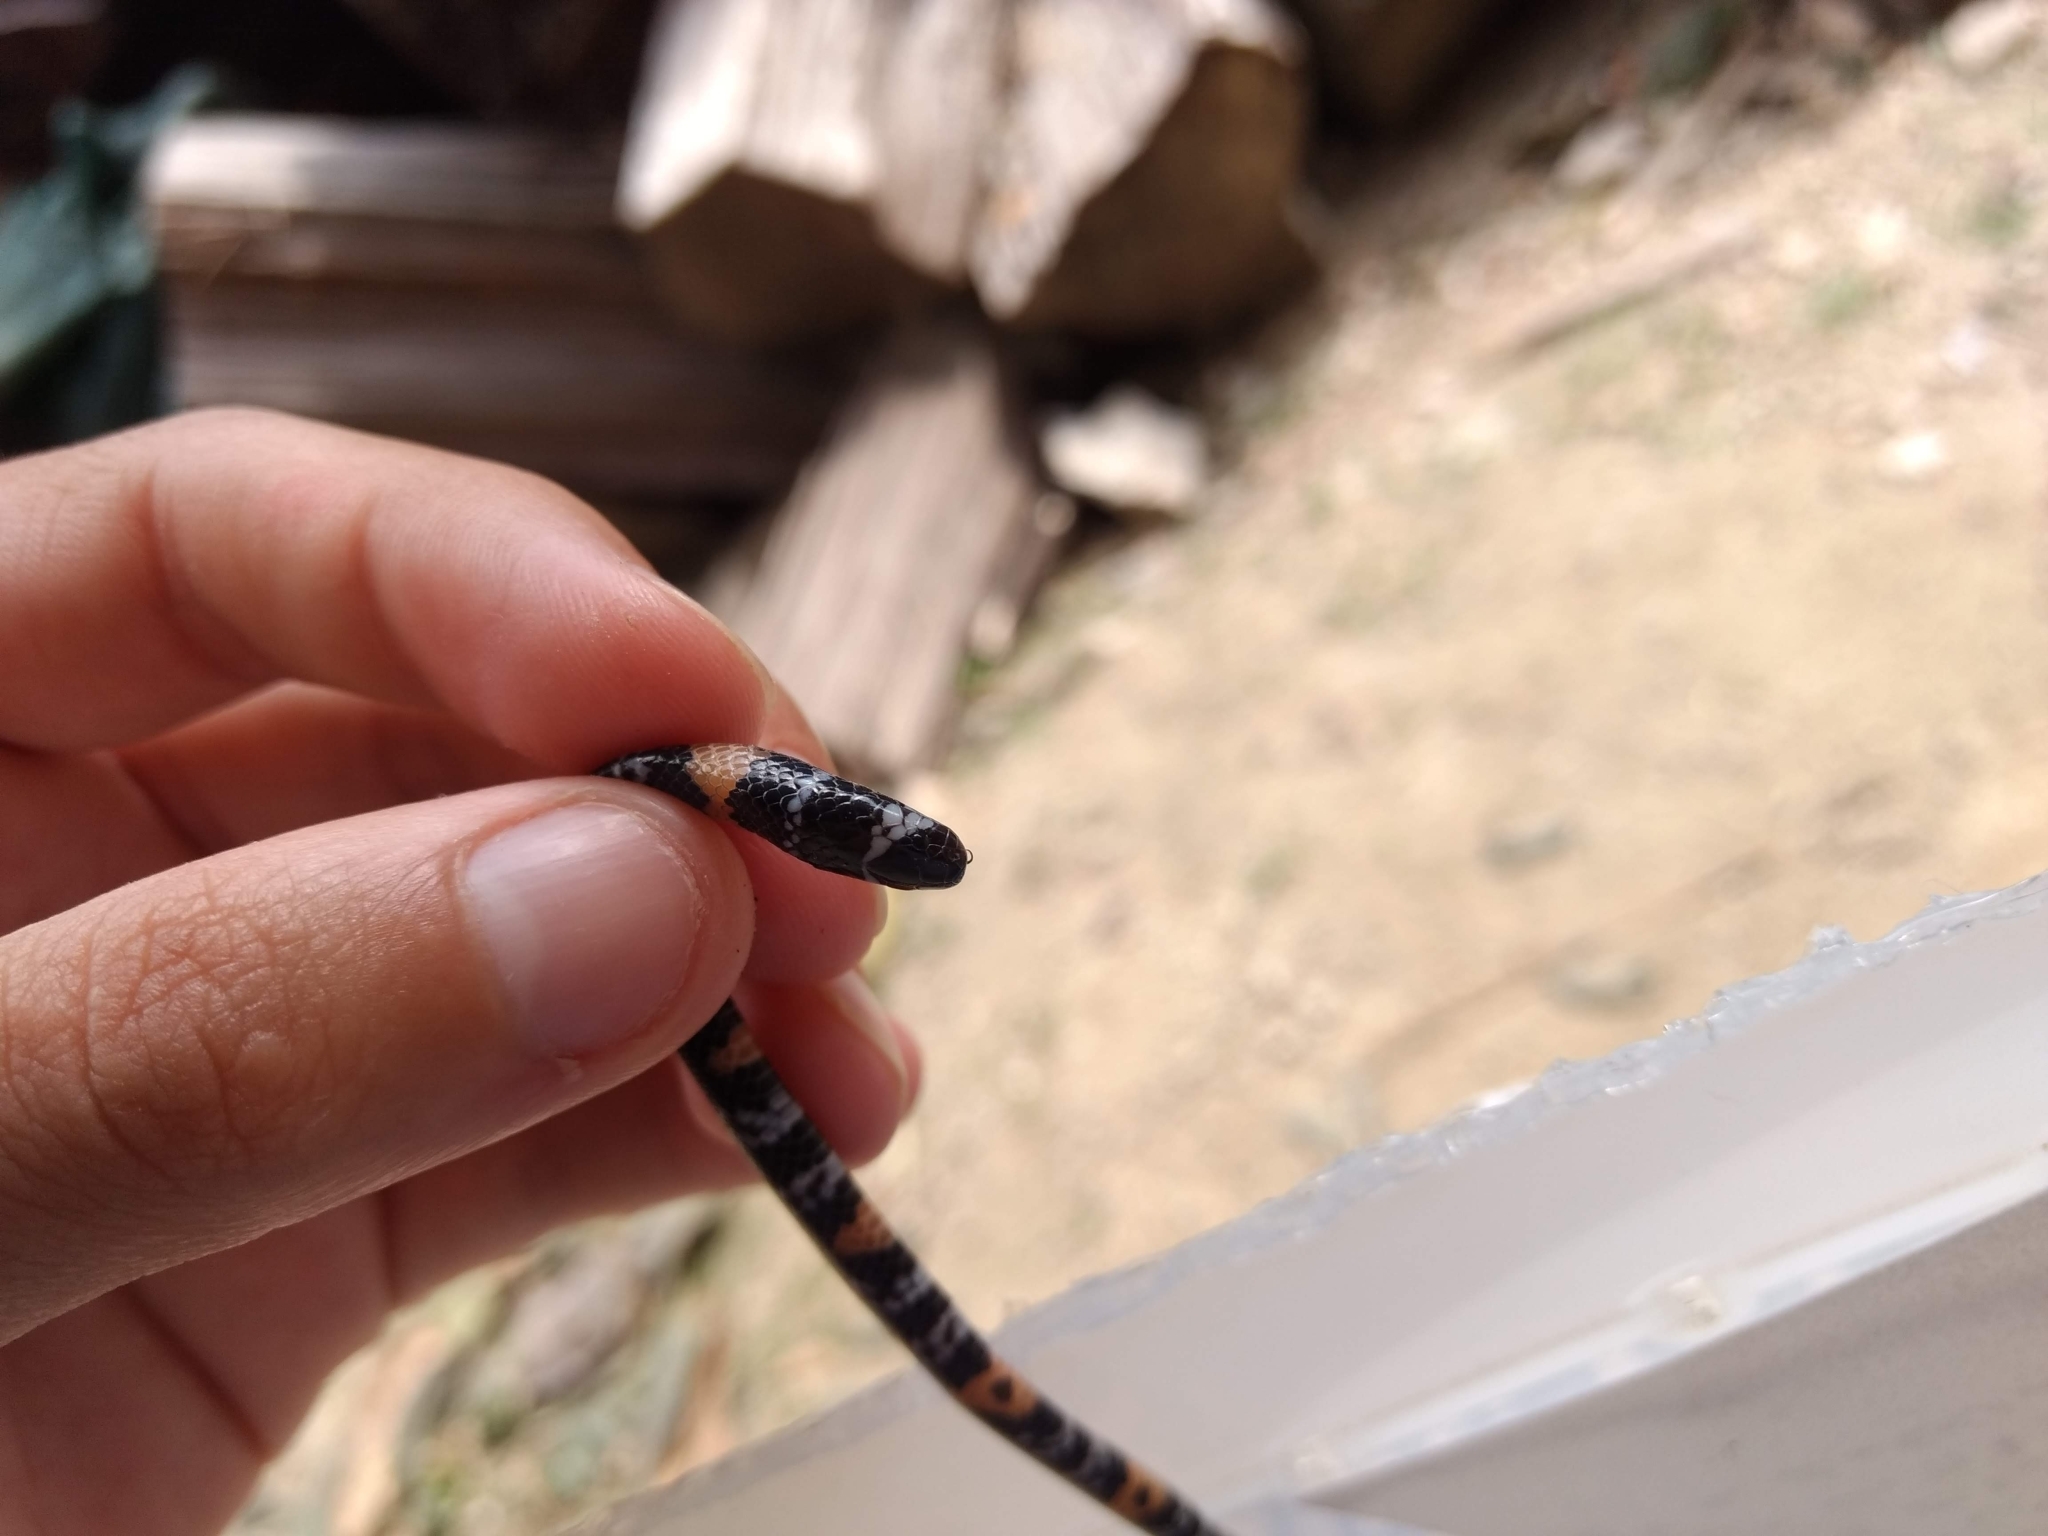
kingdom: Animalia
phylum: Chordata
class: Squamata
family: Elapidae
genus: Micrurus
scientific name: Micrurus elegans
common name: Elegant coral snake
